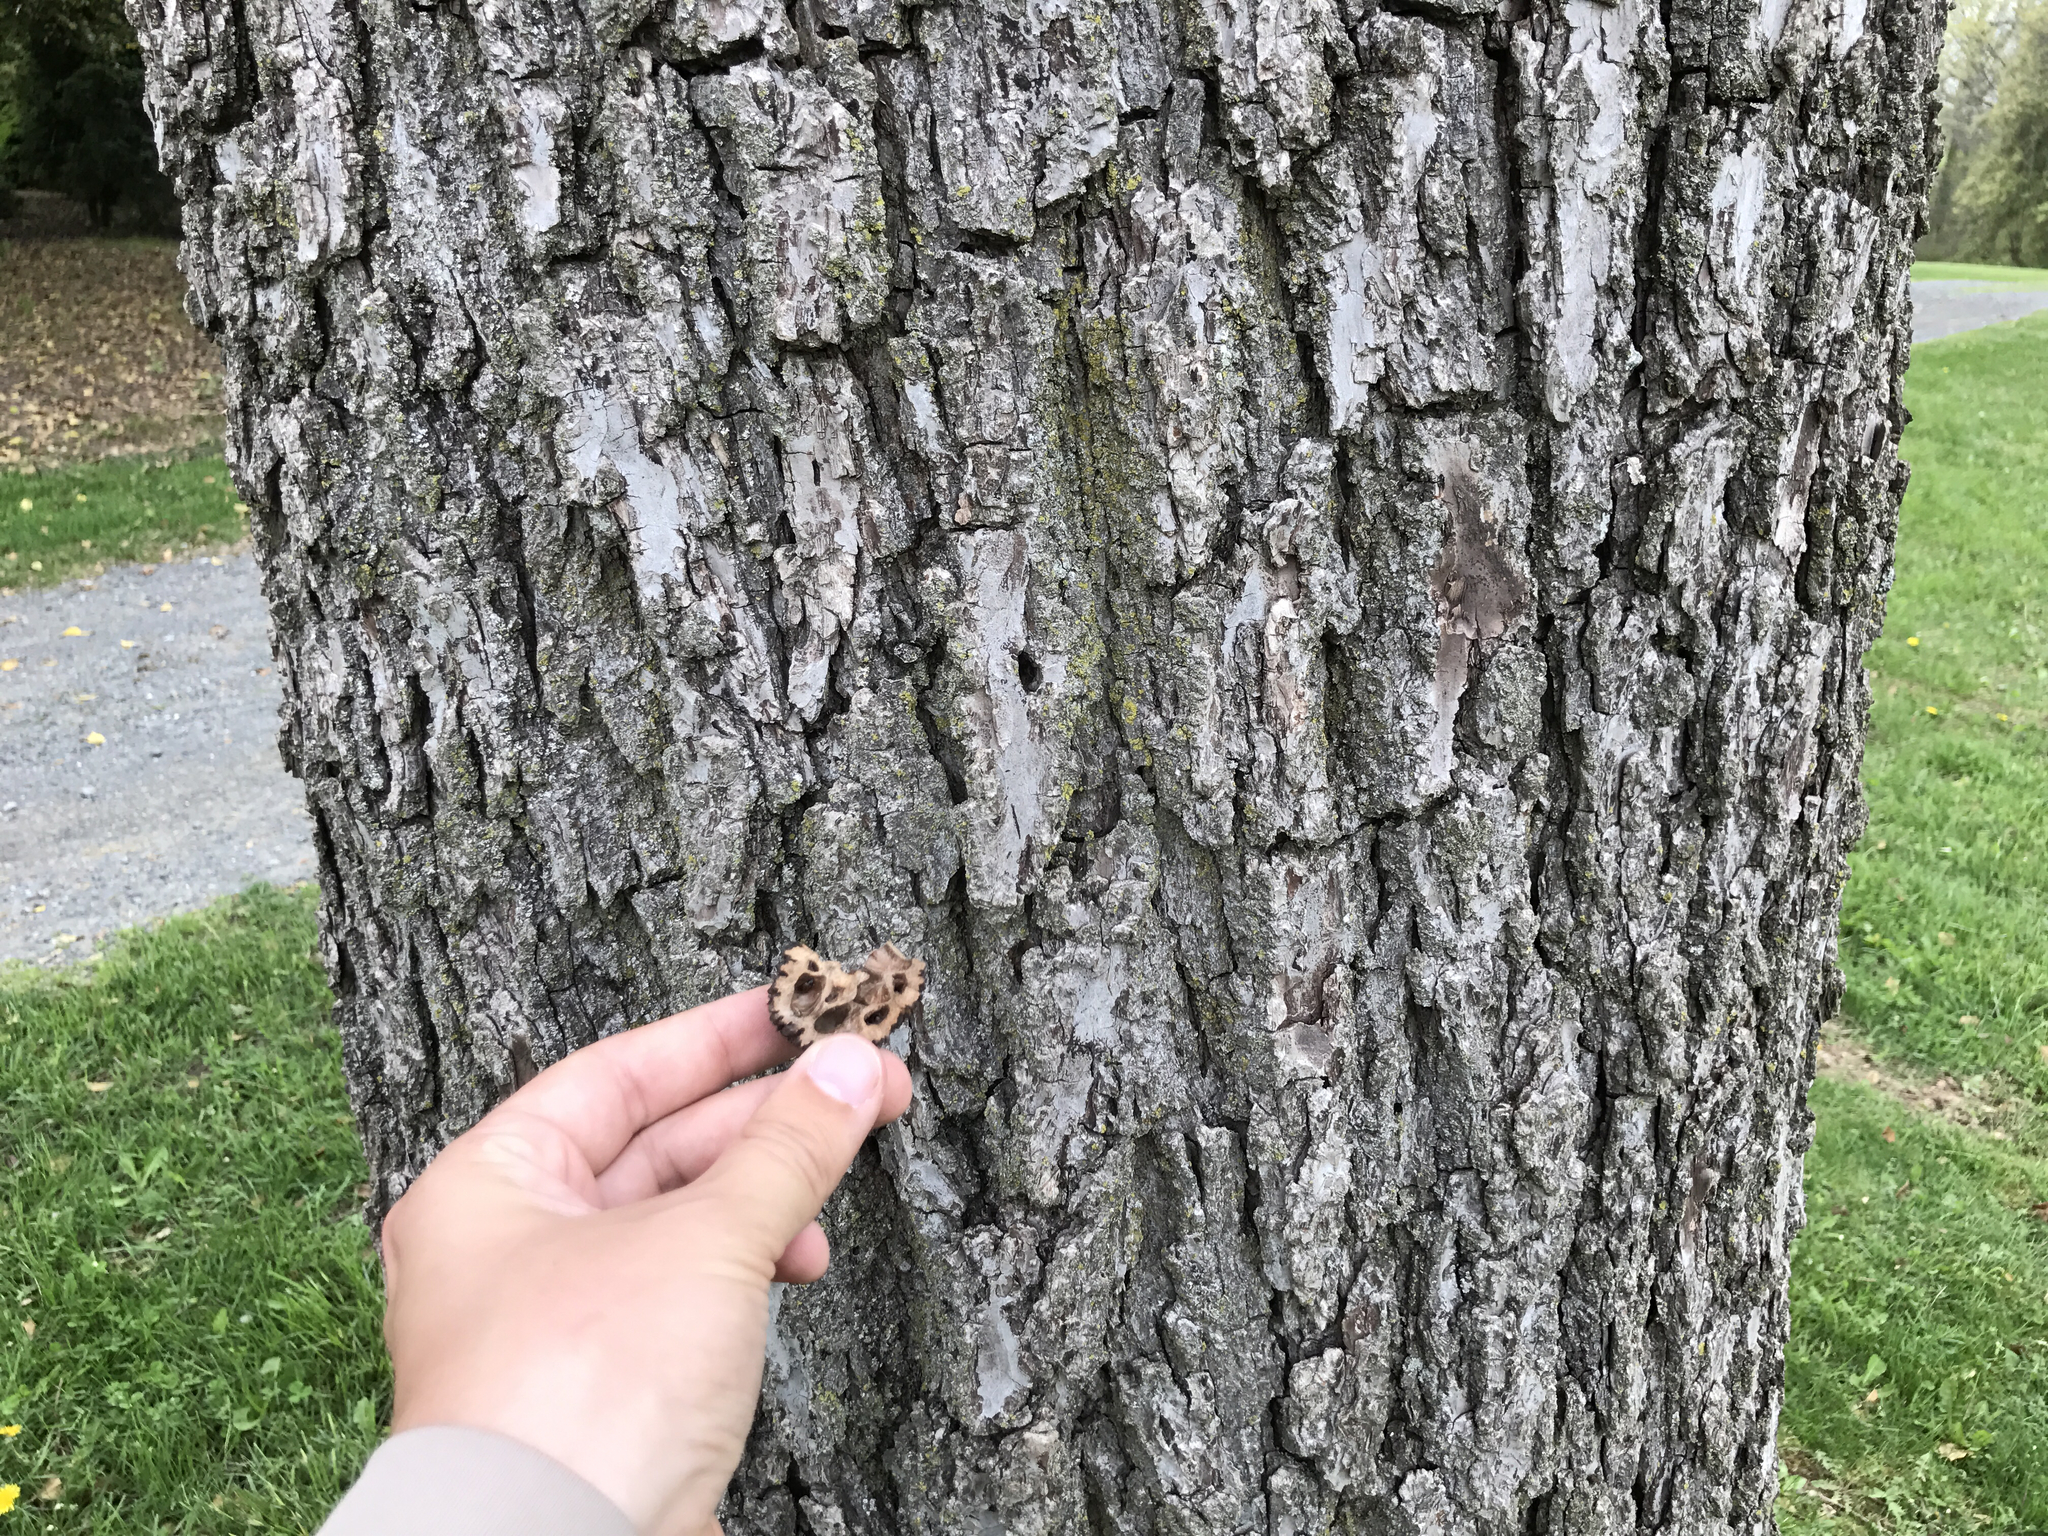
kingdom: Plantae
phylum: Tracheophyta
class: Magnoliopsida
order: Fagales
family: Juglandaceae
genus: Juglans
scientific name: Juglans nigra
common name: Black walnut
